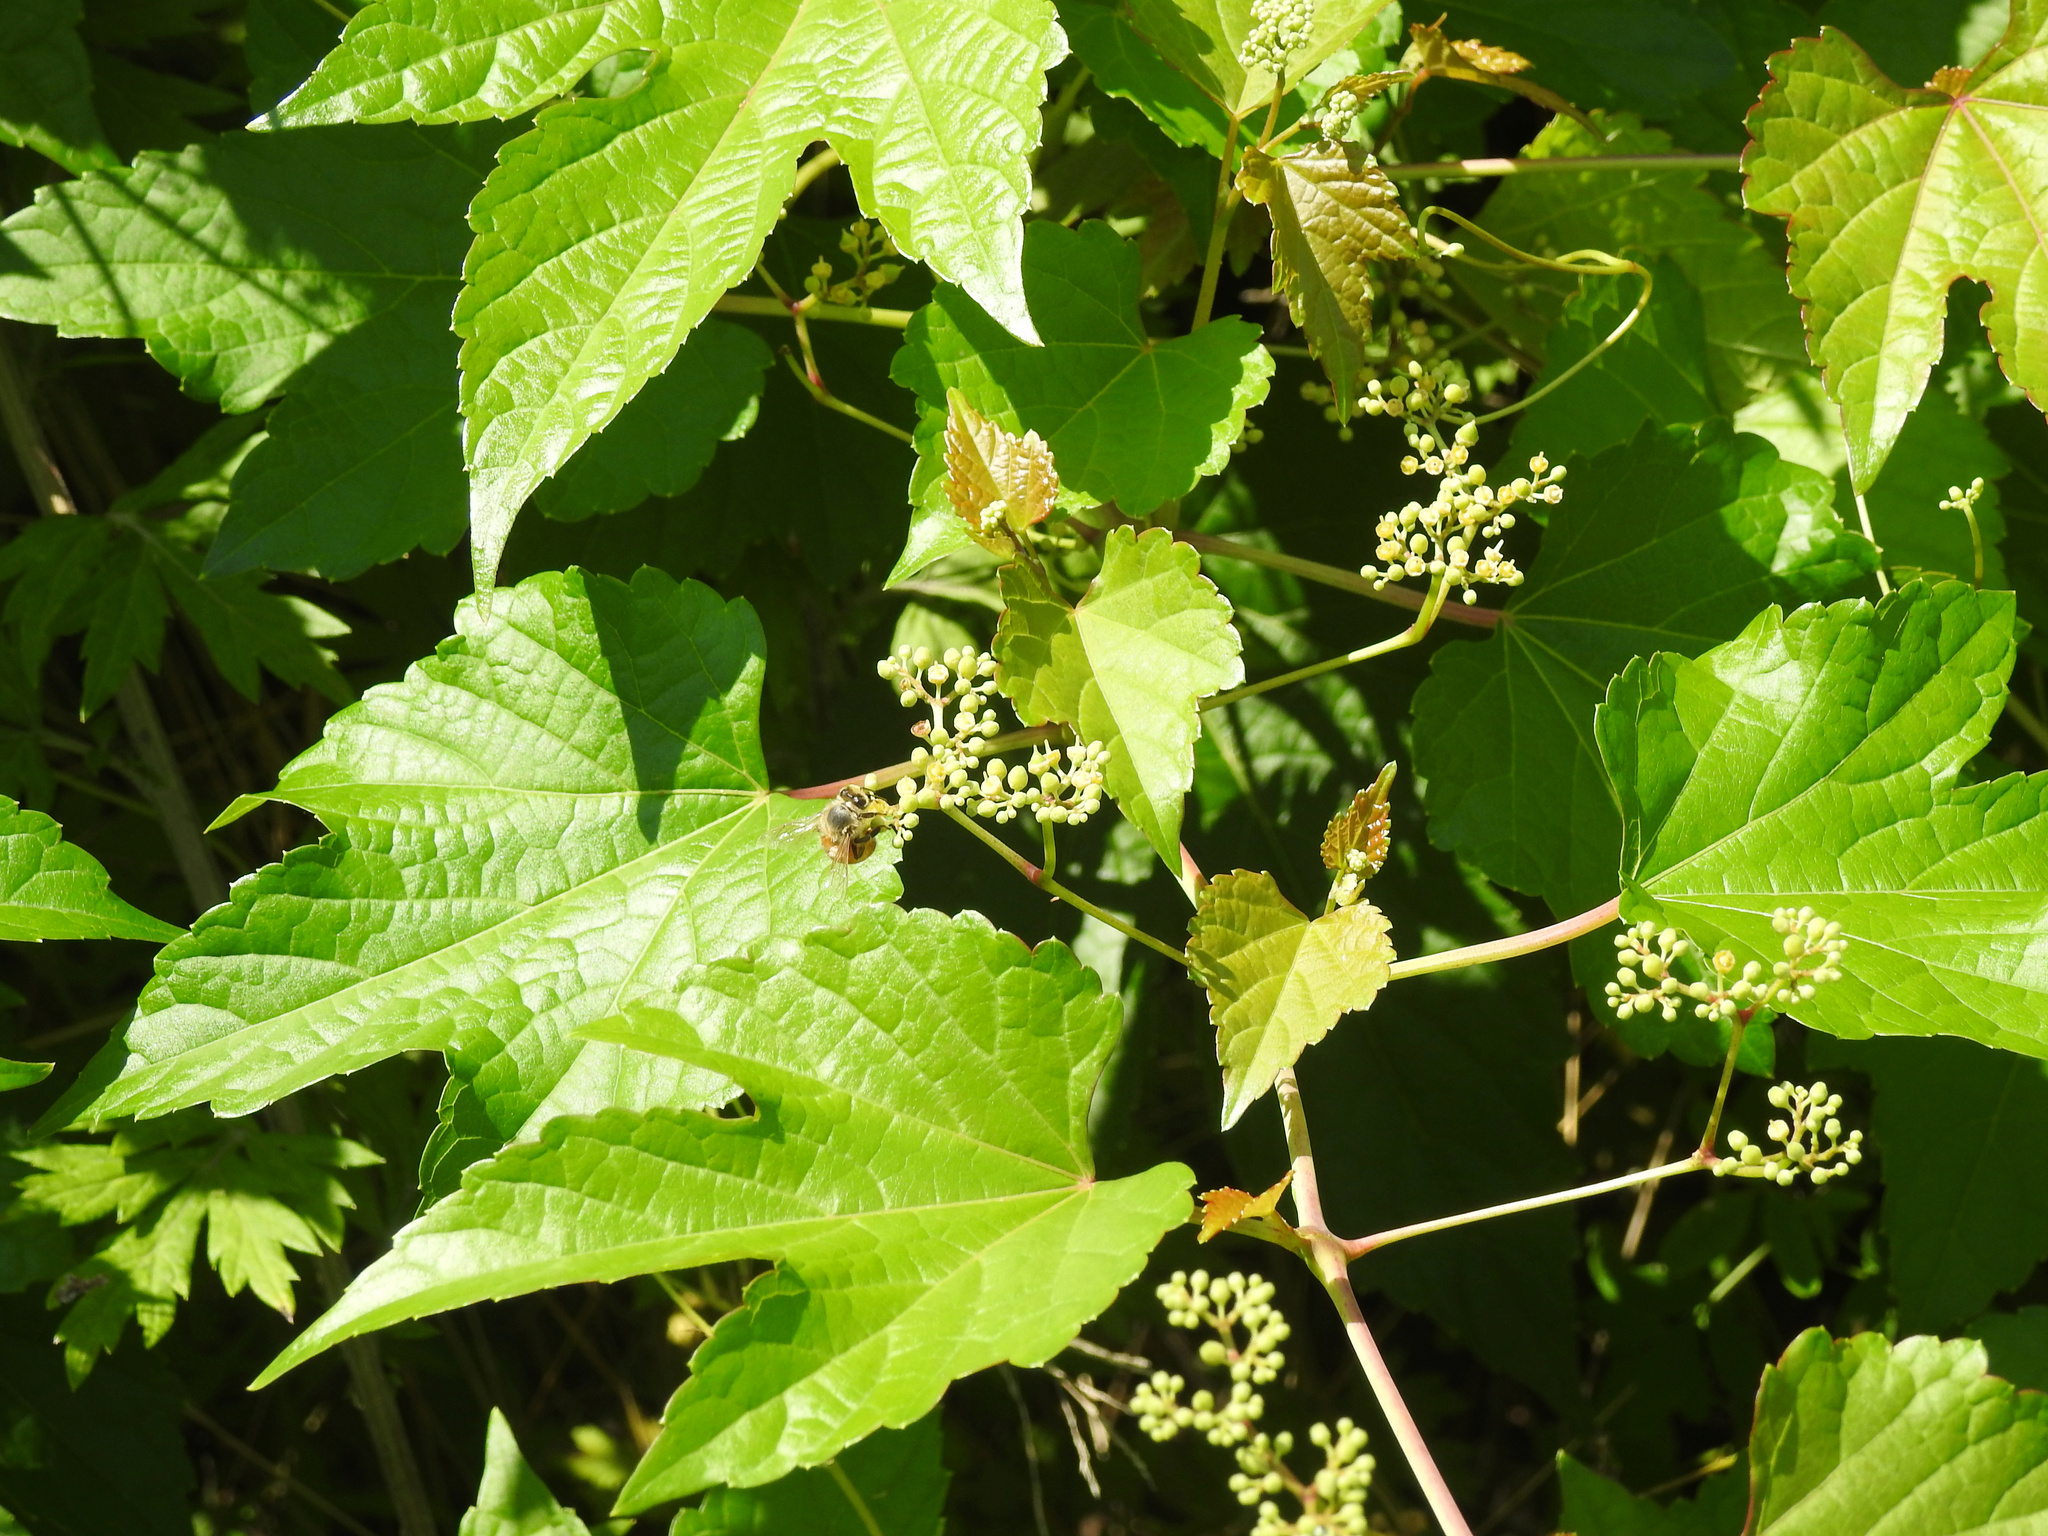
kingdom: Plantae
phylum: Tracheophyta
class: Magnoliopsida
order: Vitales
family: Vitaceae
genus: Ampelopsis
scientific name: Ampelopsis glandulosa
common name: Amur peppervine
